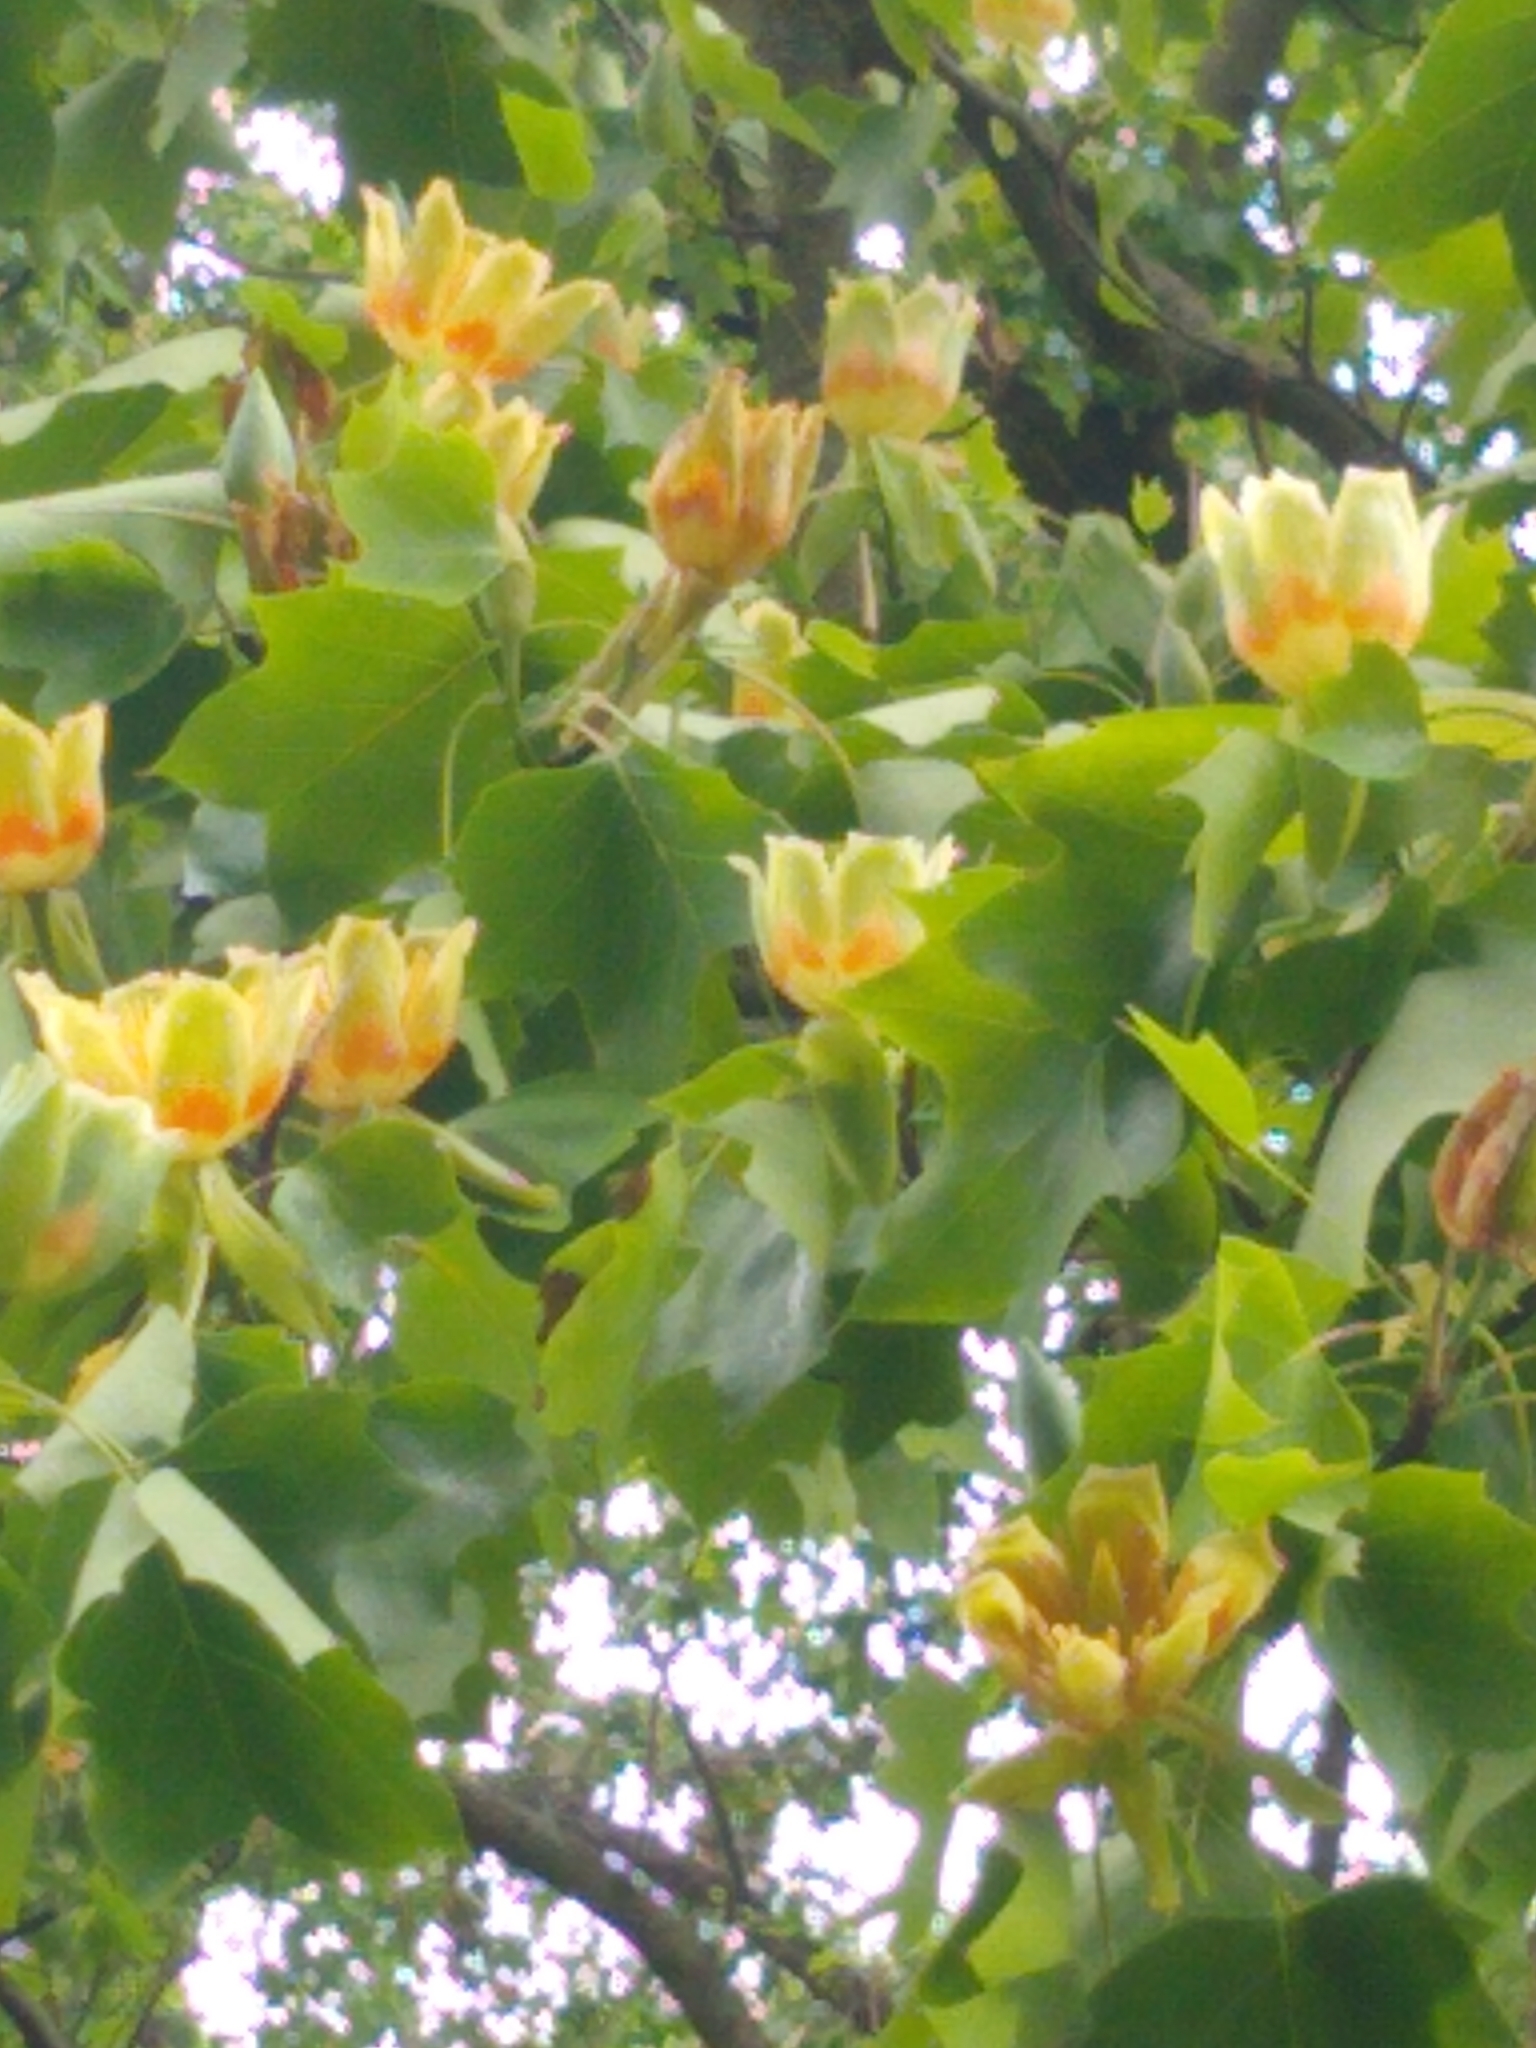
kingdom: Plantae
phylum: Tracheophyta
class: Magnoliopsida
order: Magnoliales
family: Magnoliaceae
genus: Liriodendron
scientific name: Liriodendron tulipifera
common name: Tulip tree
